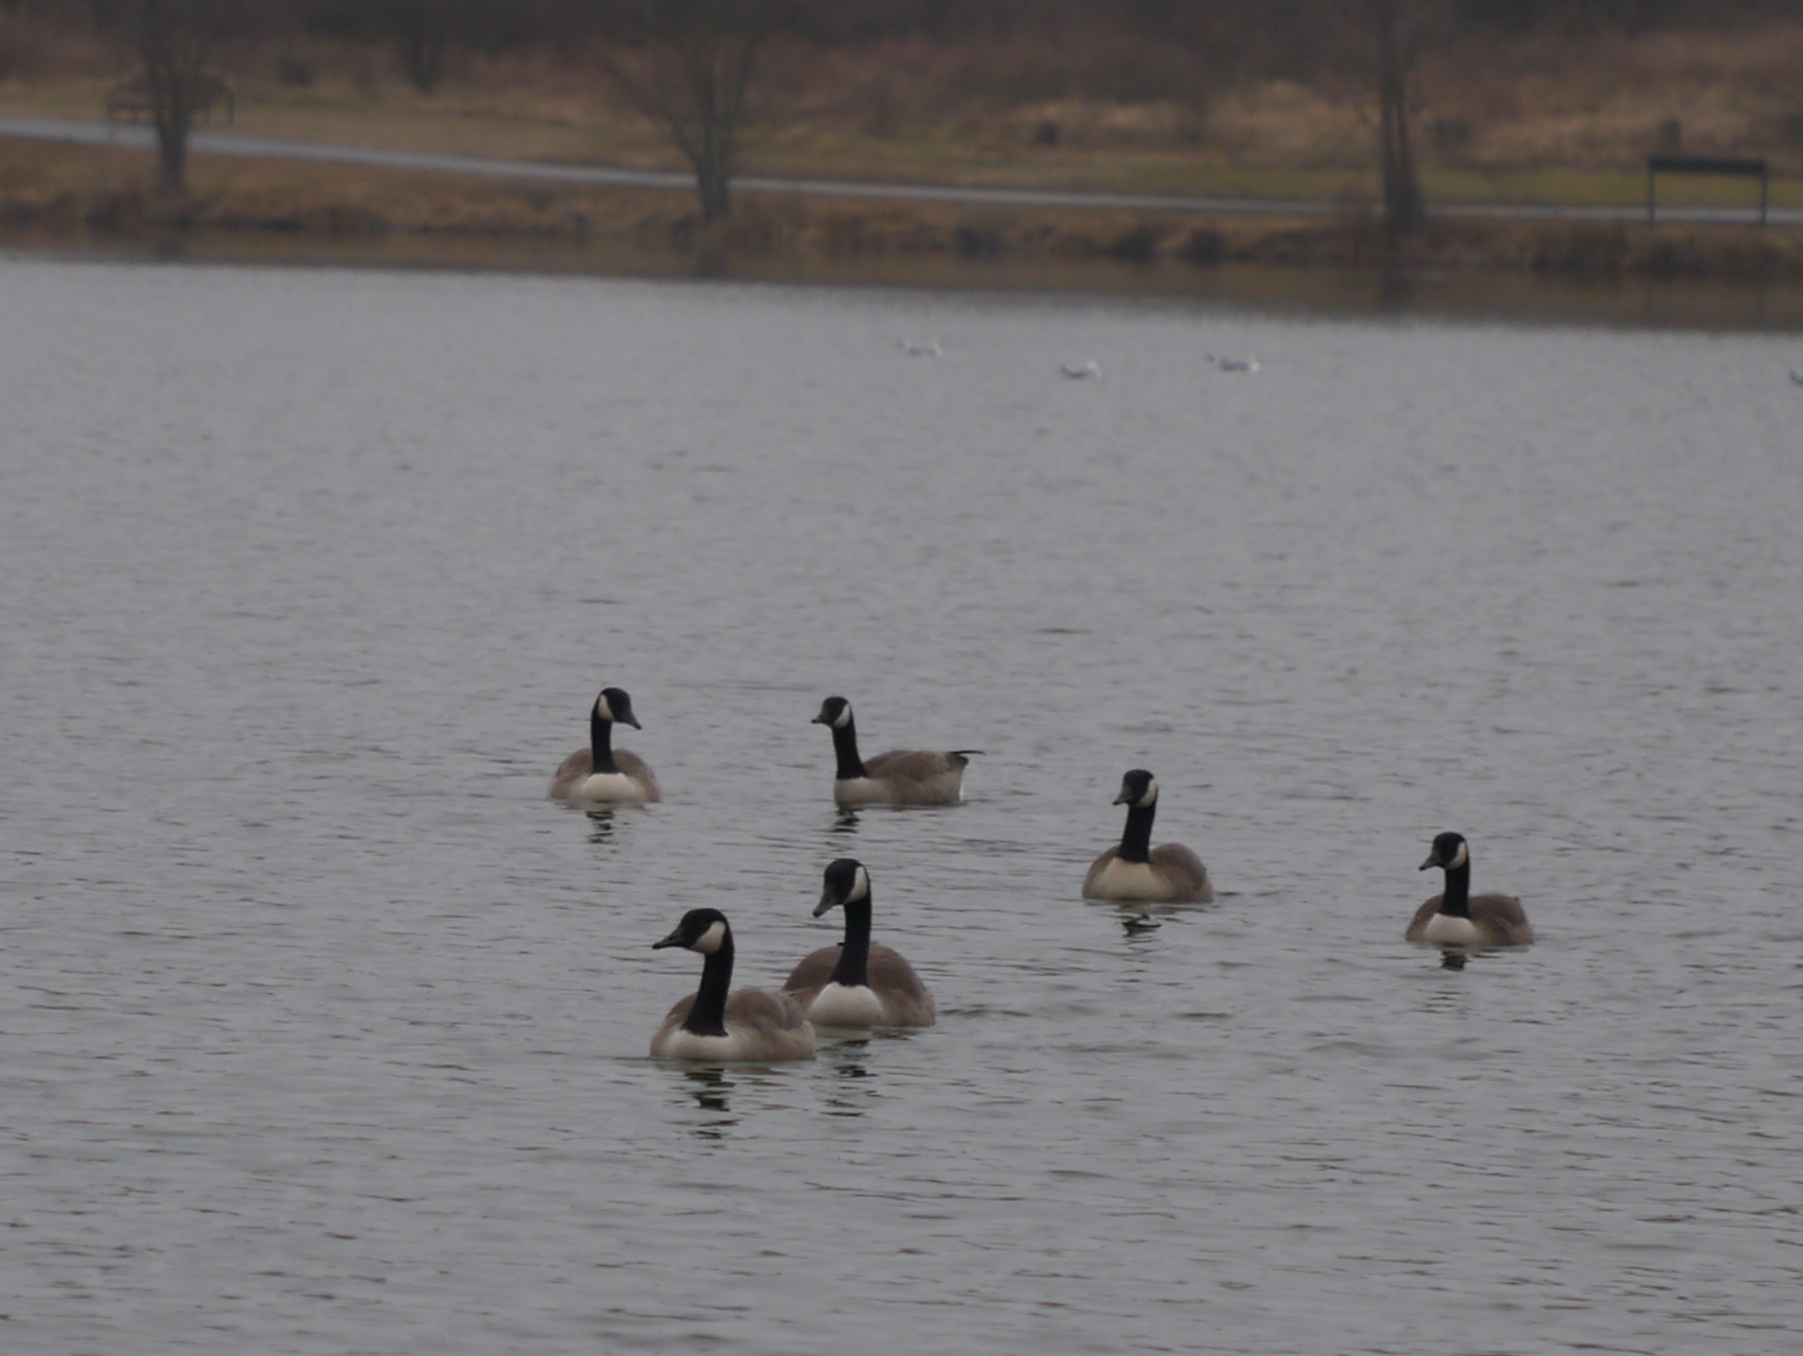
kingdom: Animalia
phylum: Chordata
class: Aves
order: Anseriformes
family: Anatidae
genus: Branta
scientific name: Branta canadensis
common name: Canada goose
